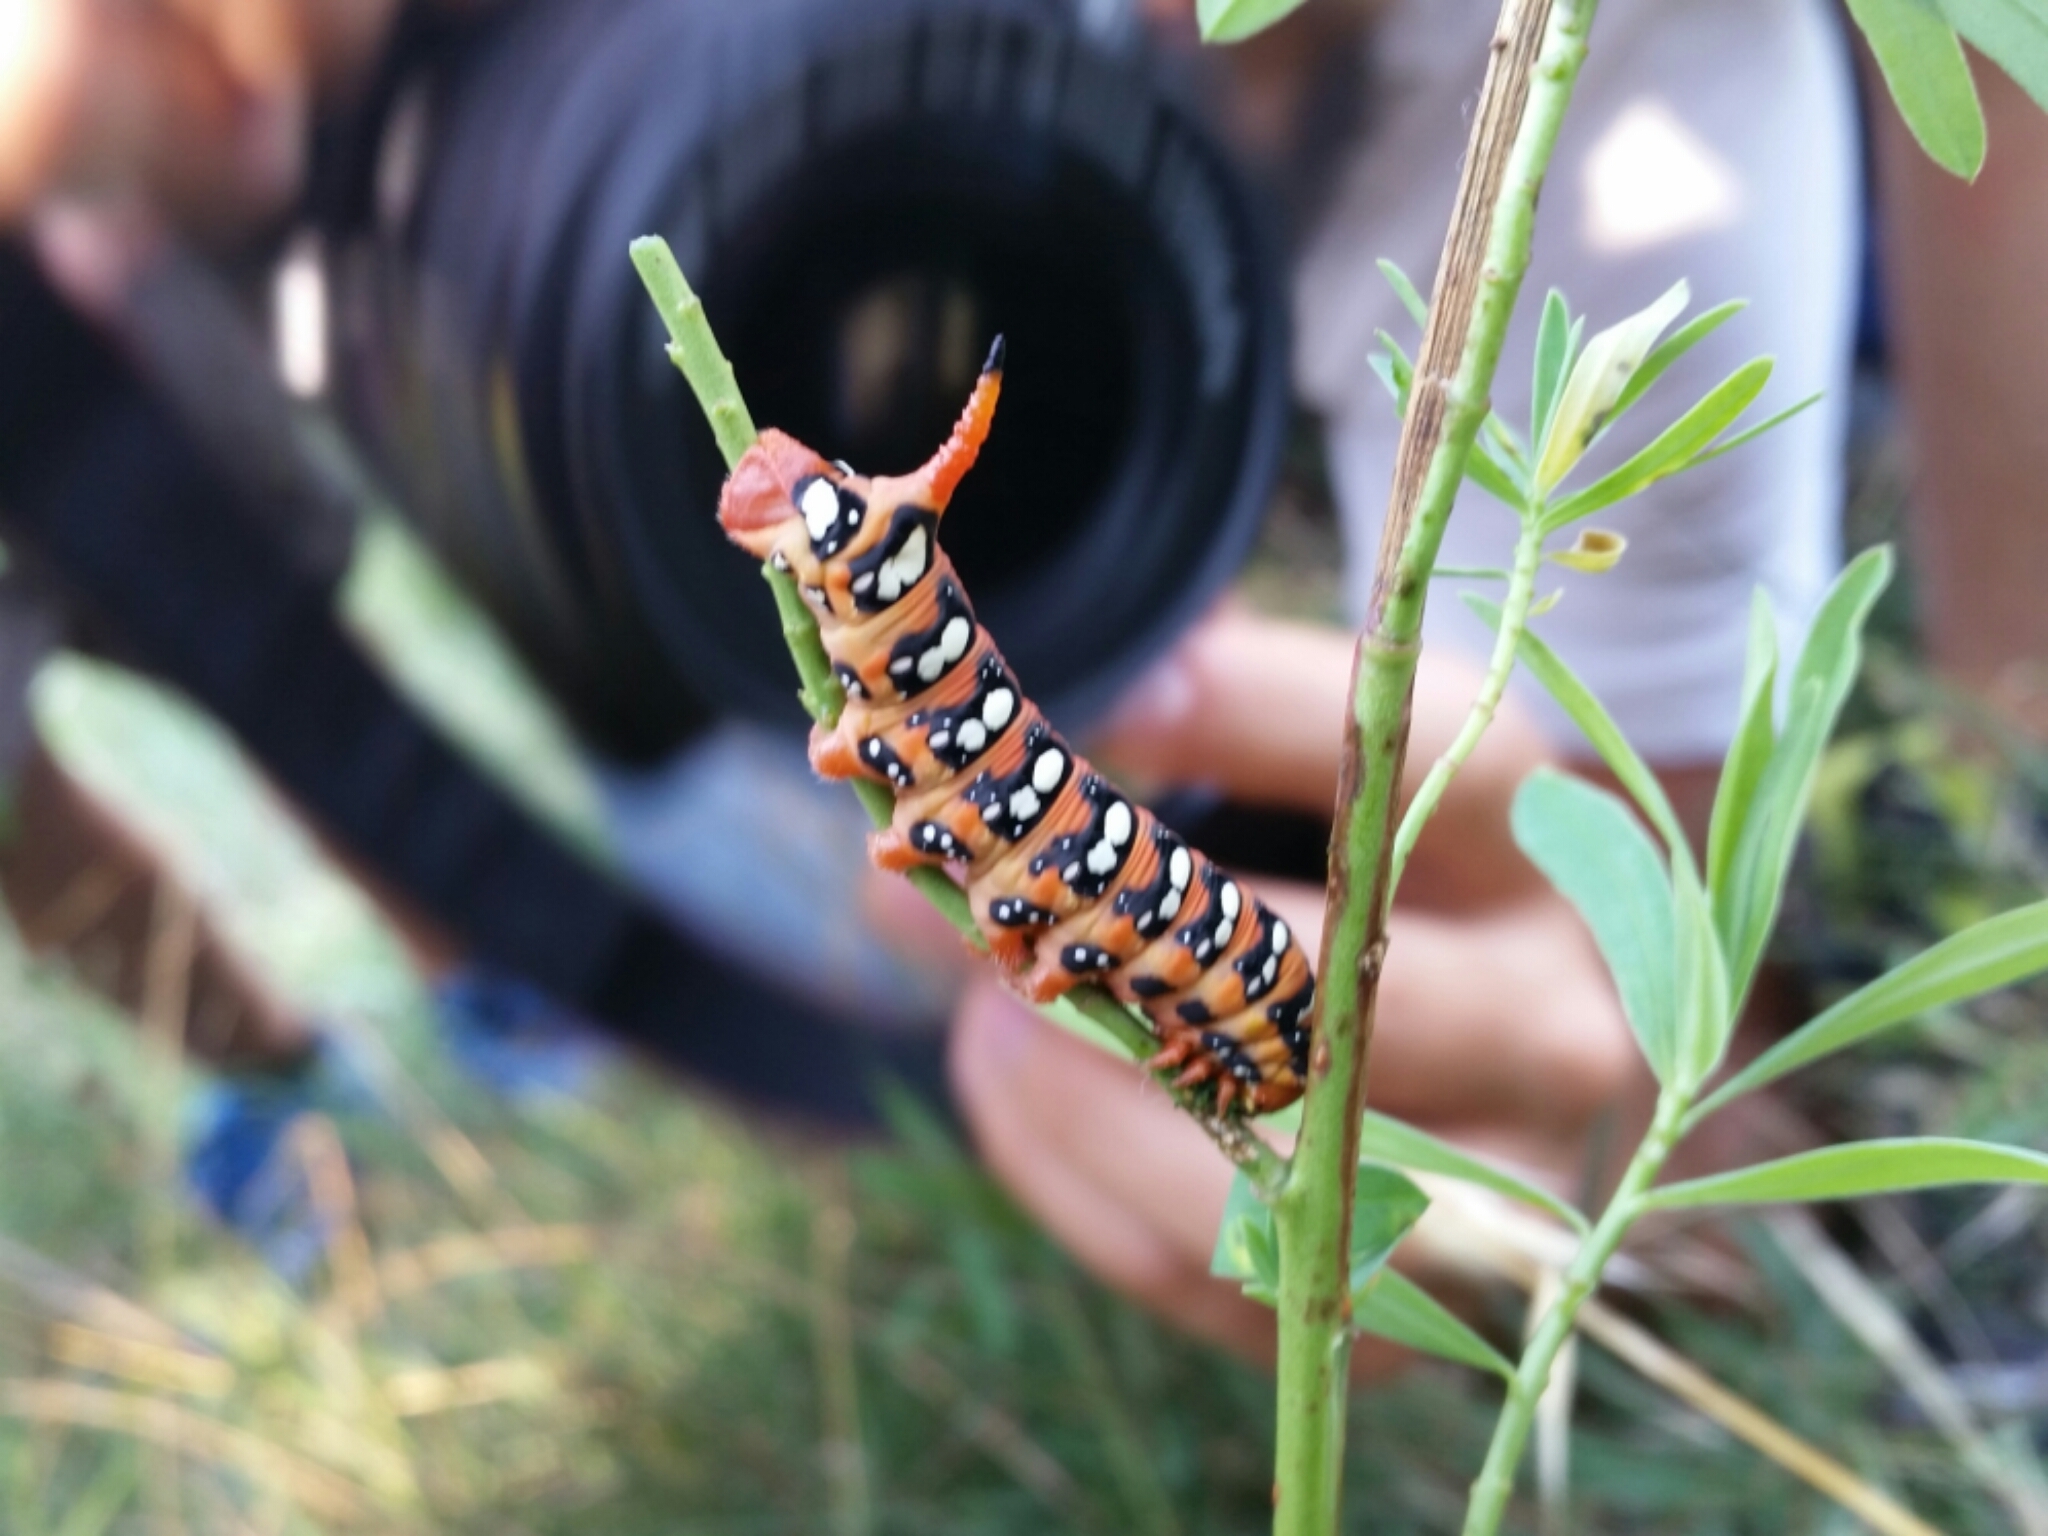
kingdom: Animalia
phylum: Arthropoda
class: Insecta
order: Lepidoptera
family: Sphingidae
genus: Hyles
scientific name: Hyles euphorbiae
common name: Spurge hawk-moth
